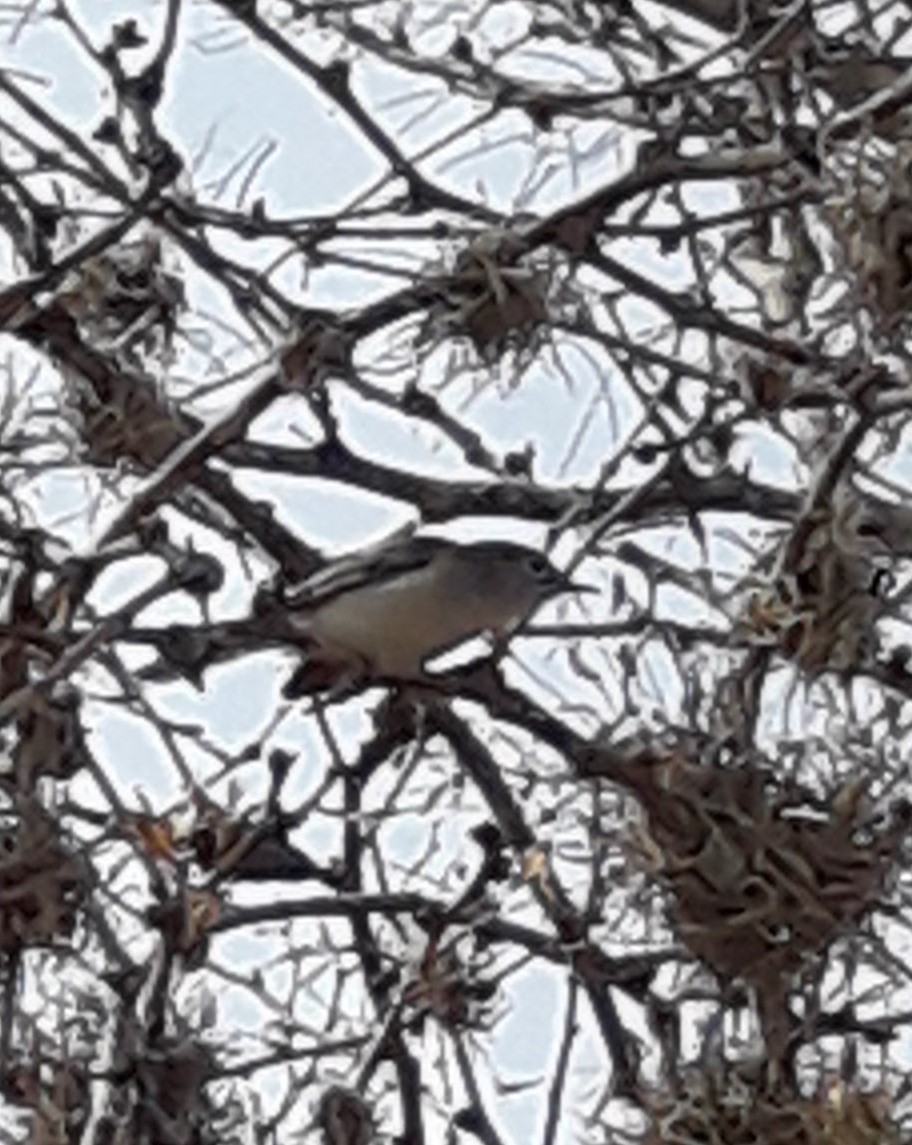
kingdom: Animalia
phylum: Chordata
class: Aves
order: Passeriformes
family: Polioptilidae
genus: Polioptila
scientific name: Polioptila caerulea
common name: Blue-gray gnatcatcher
